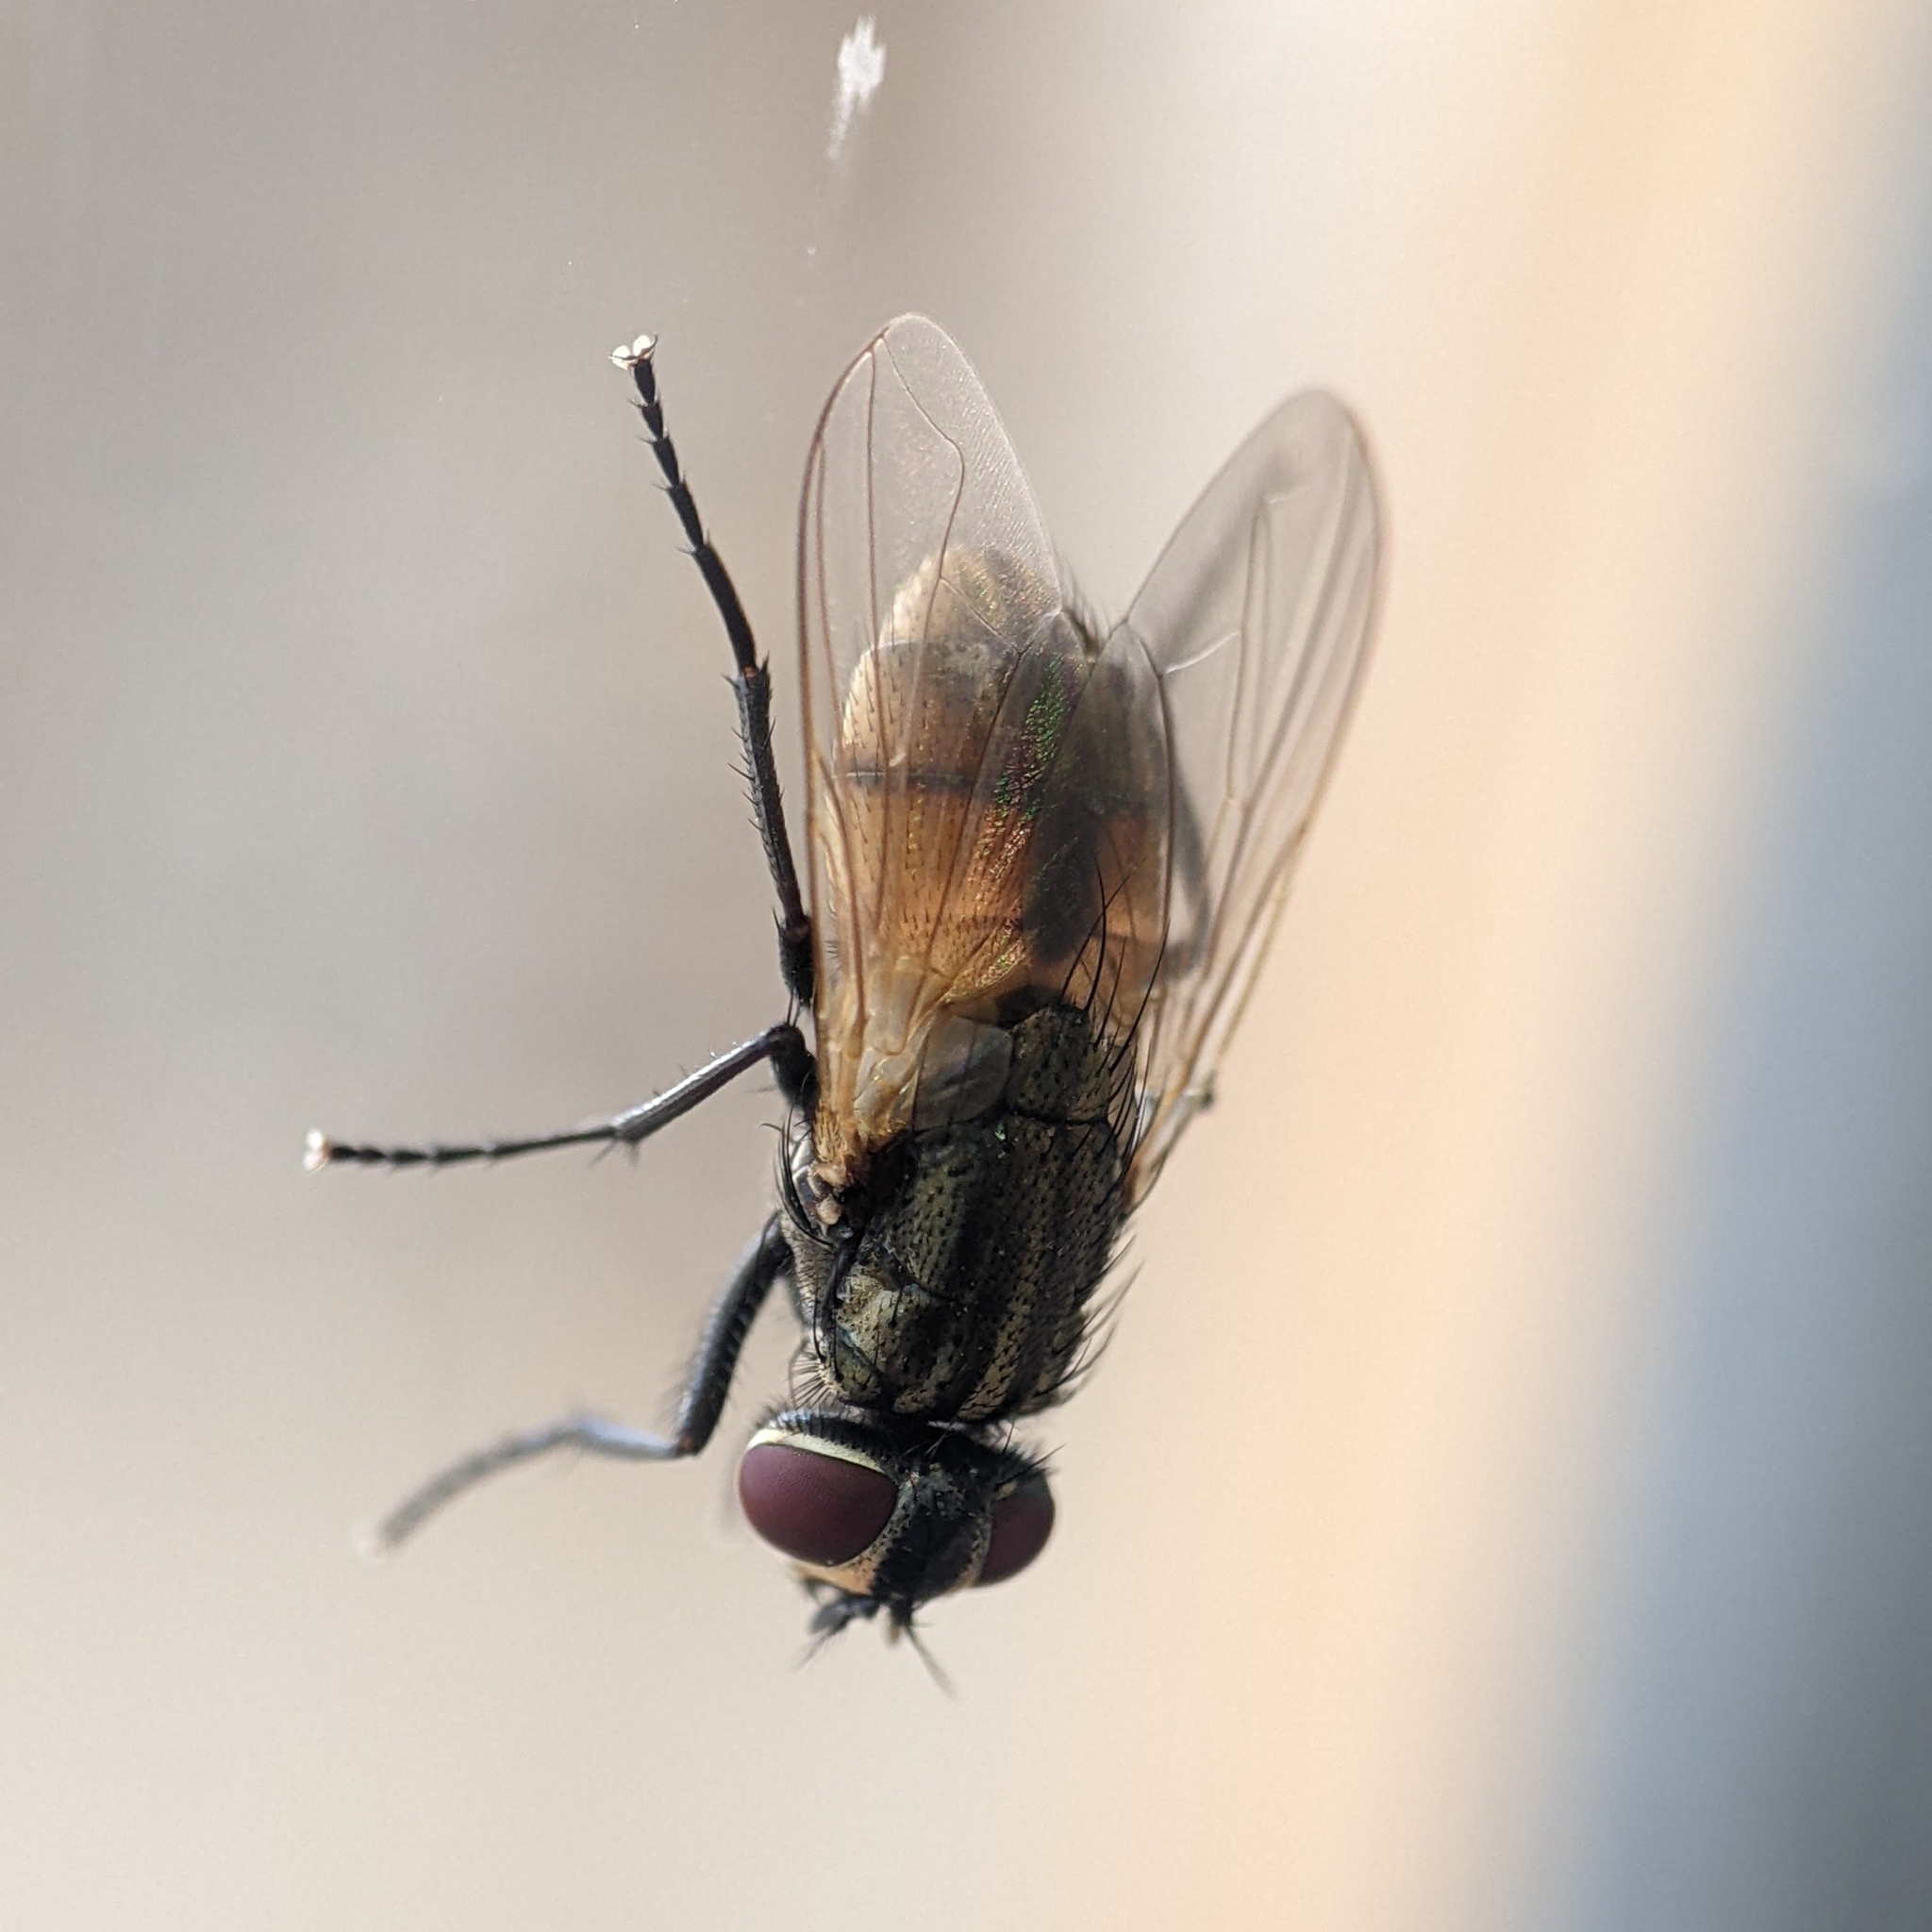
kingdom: Animalia
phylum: Arthropoda
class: Insecta
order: Diptera
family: Muscidae
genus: Musca
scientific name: Musca domestica
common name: House fly
